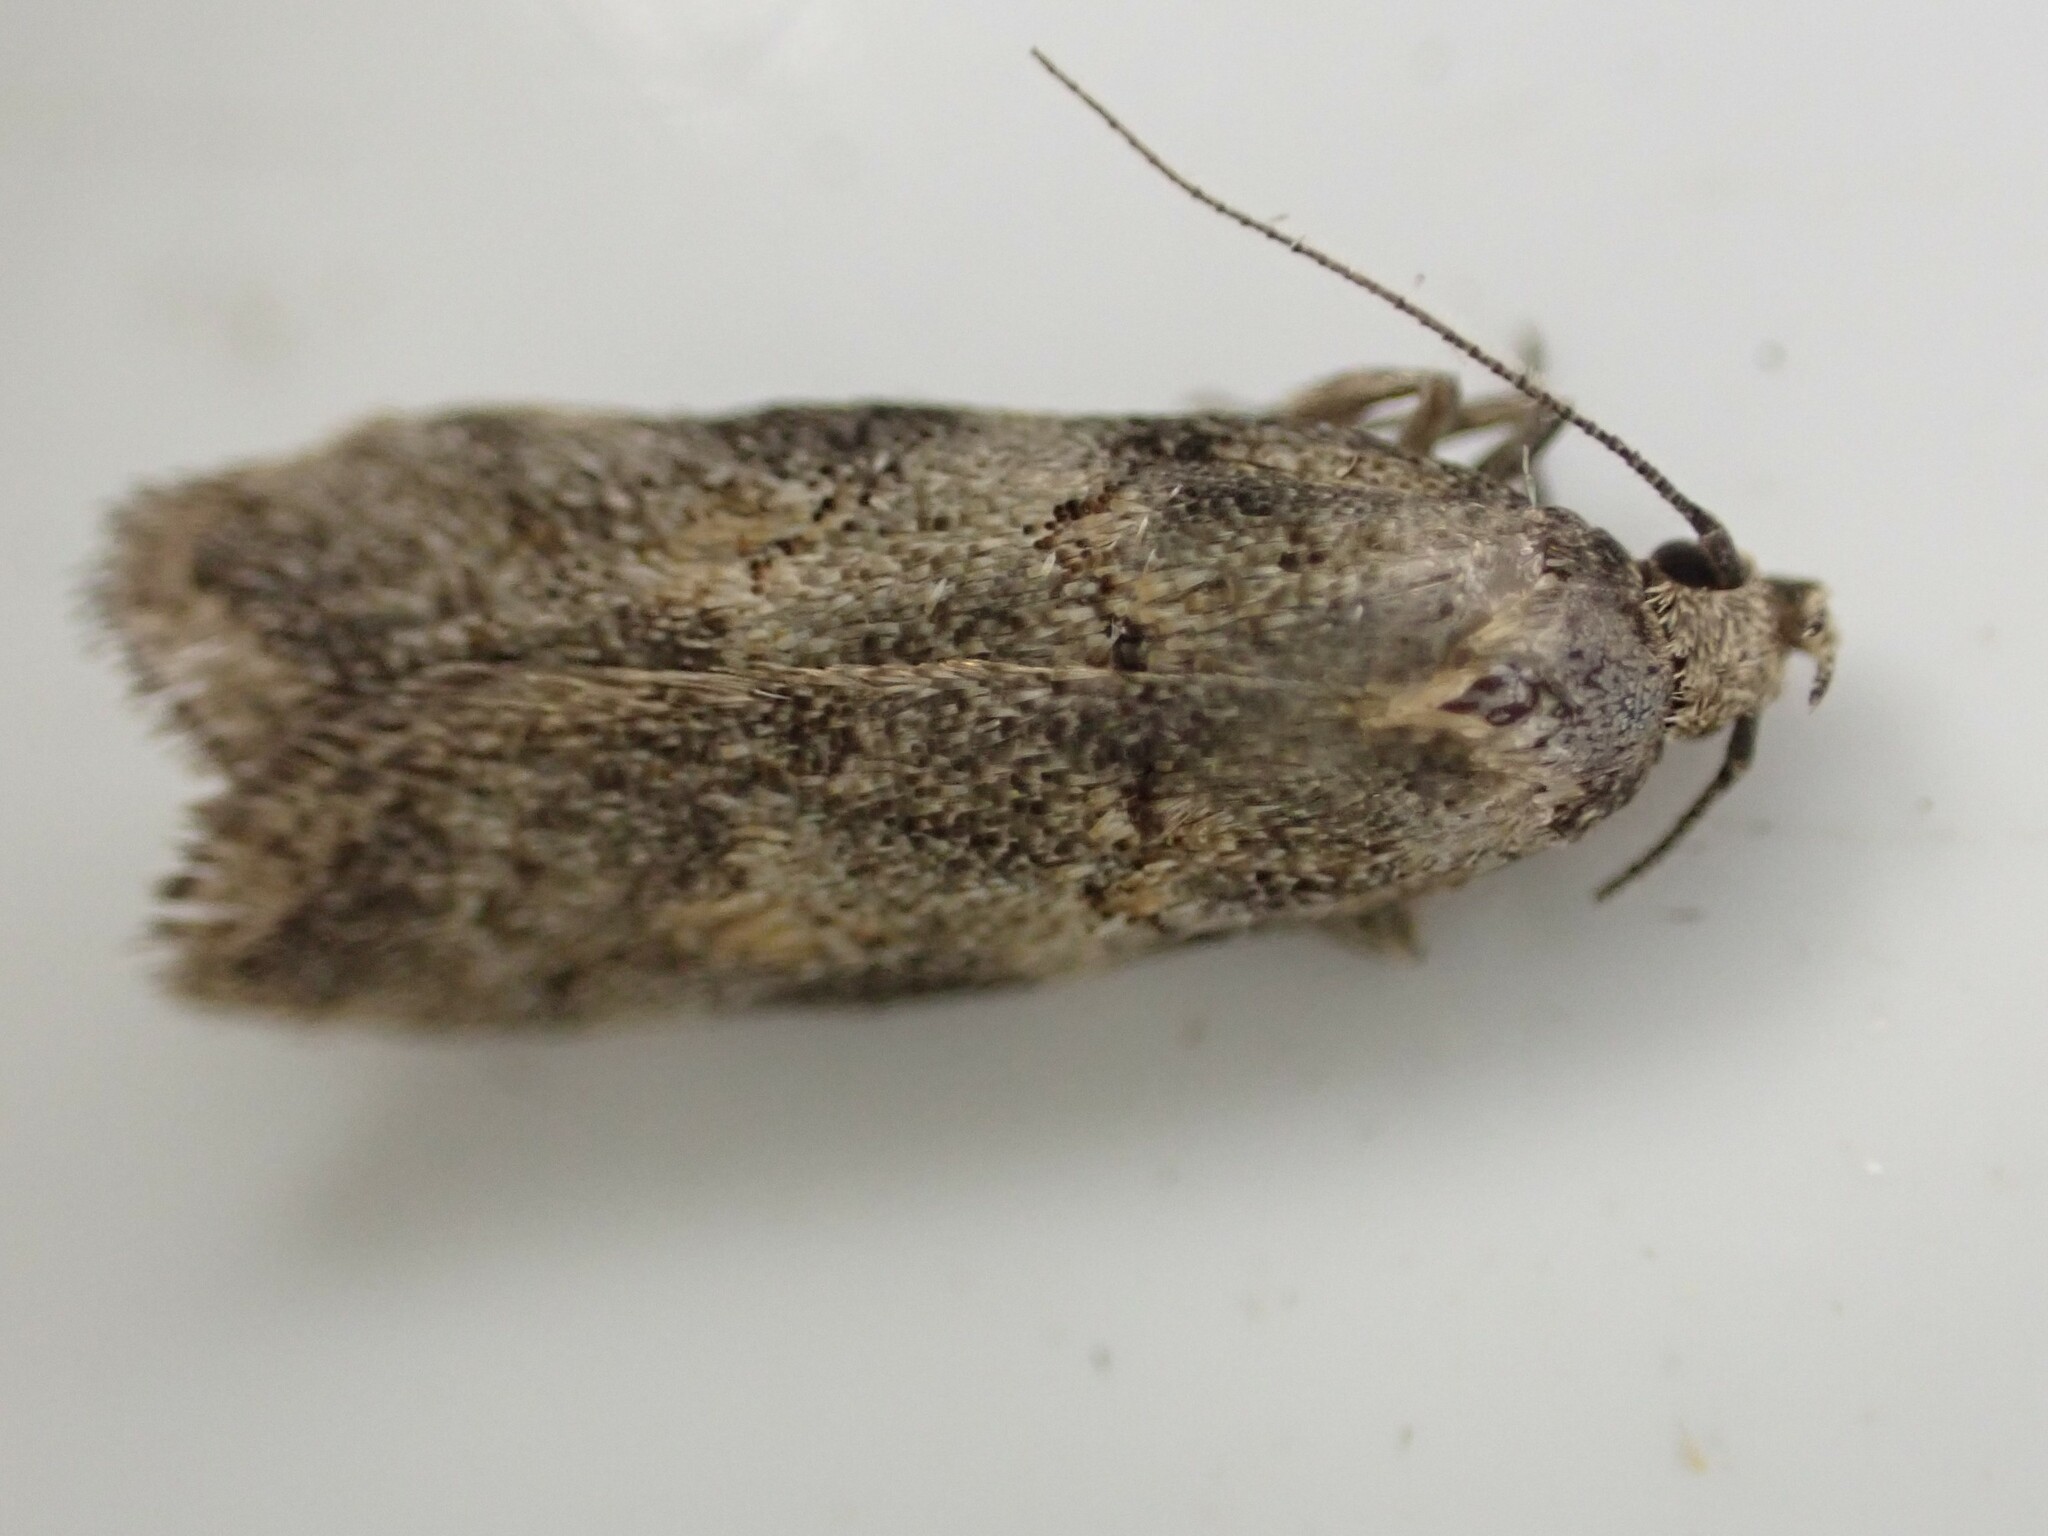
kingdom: Animalia
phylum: Arthropoda
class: Insecta
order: Lepidoptera
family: Oecophoridae
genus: Trachypepla
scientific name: Trachypepla contritella
